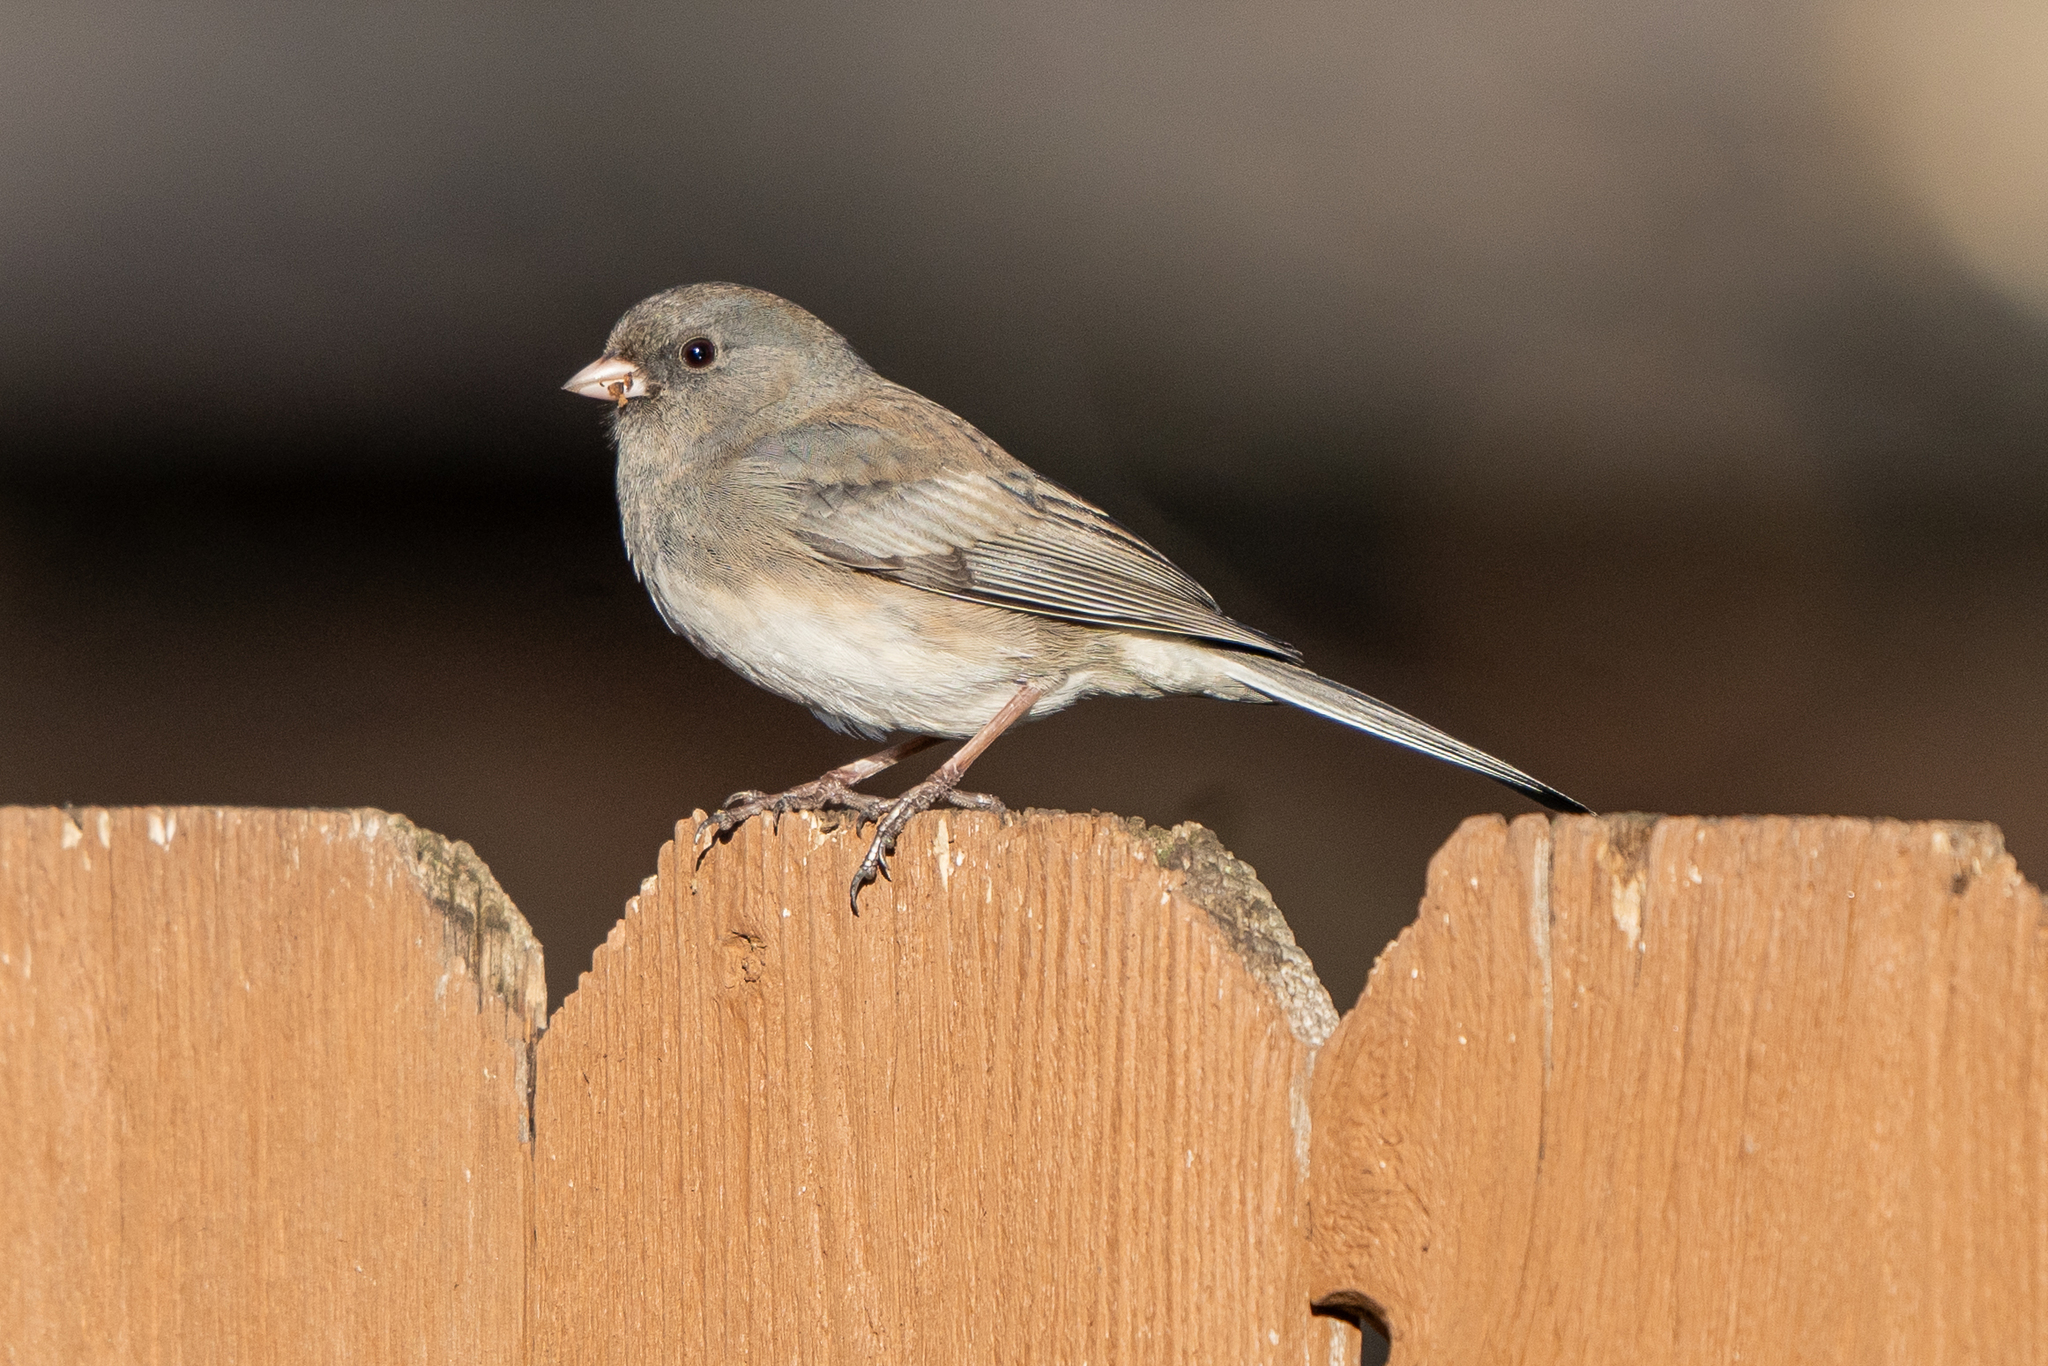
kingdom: Animalia
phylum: Chordata
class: Aves
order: Passeriformes
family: Passerellidae
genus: Junco
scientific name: Junco hyemalis
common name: Dark-eyed junco
